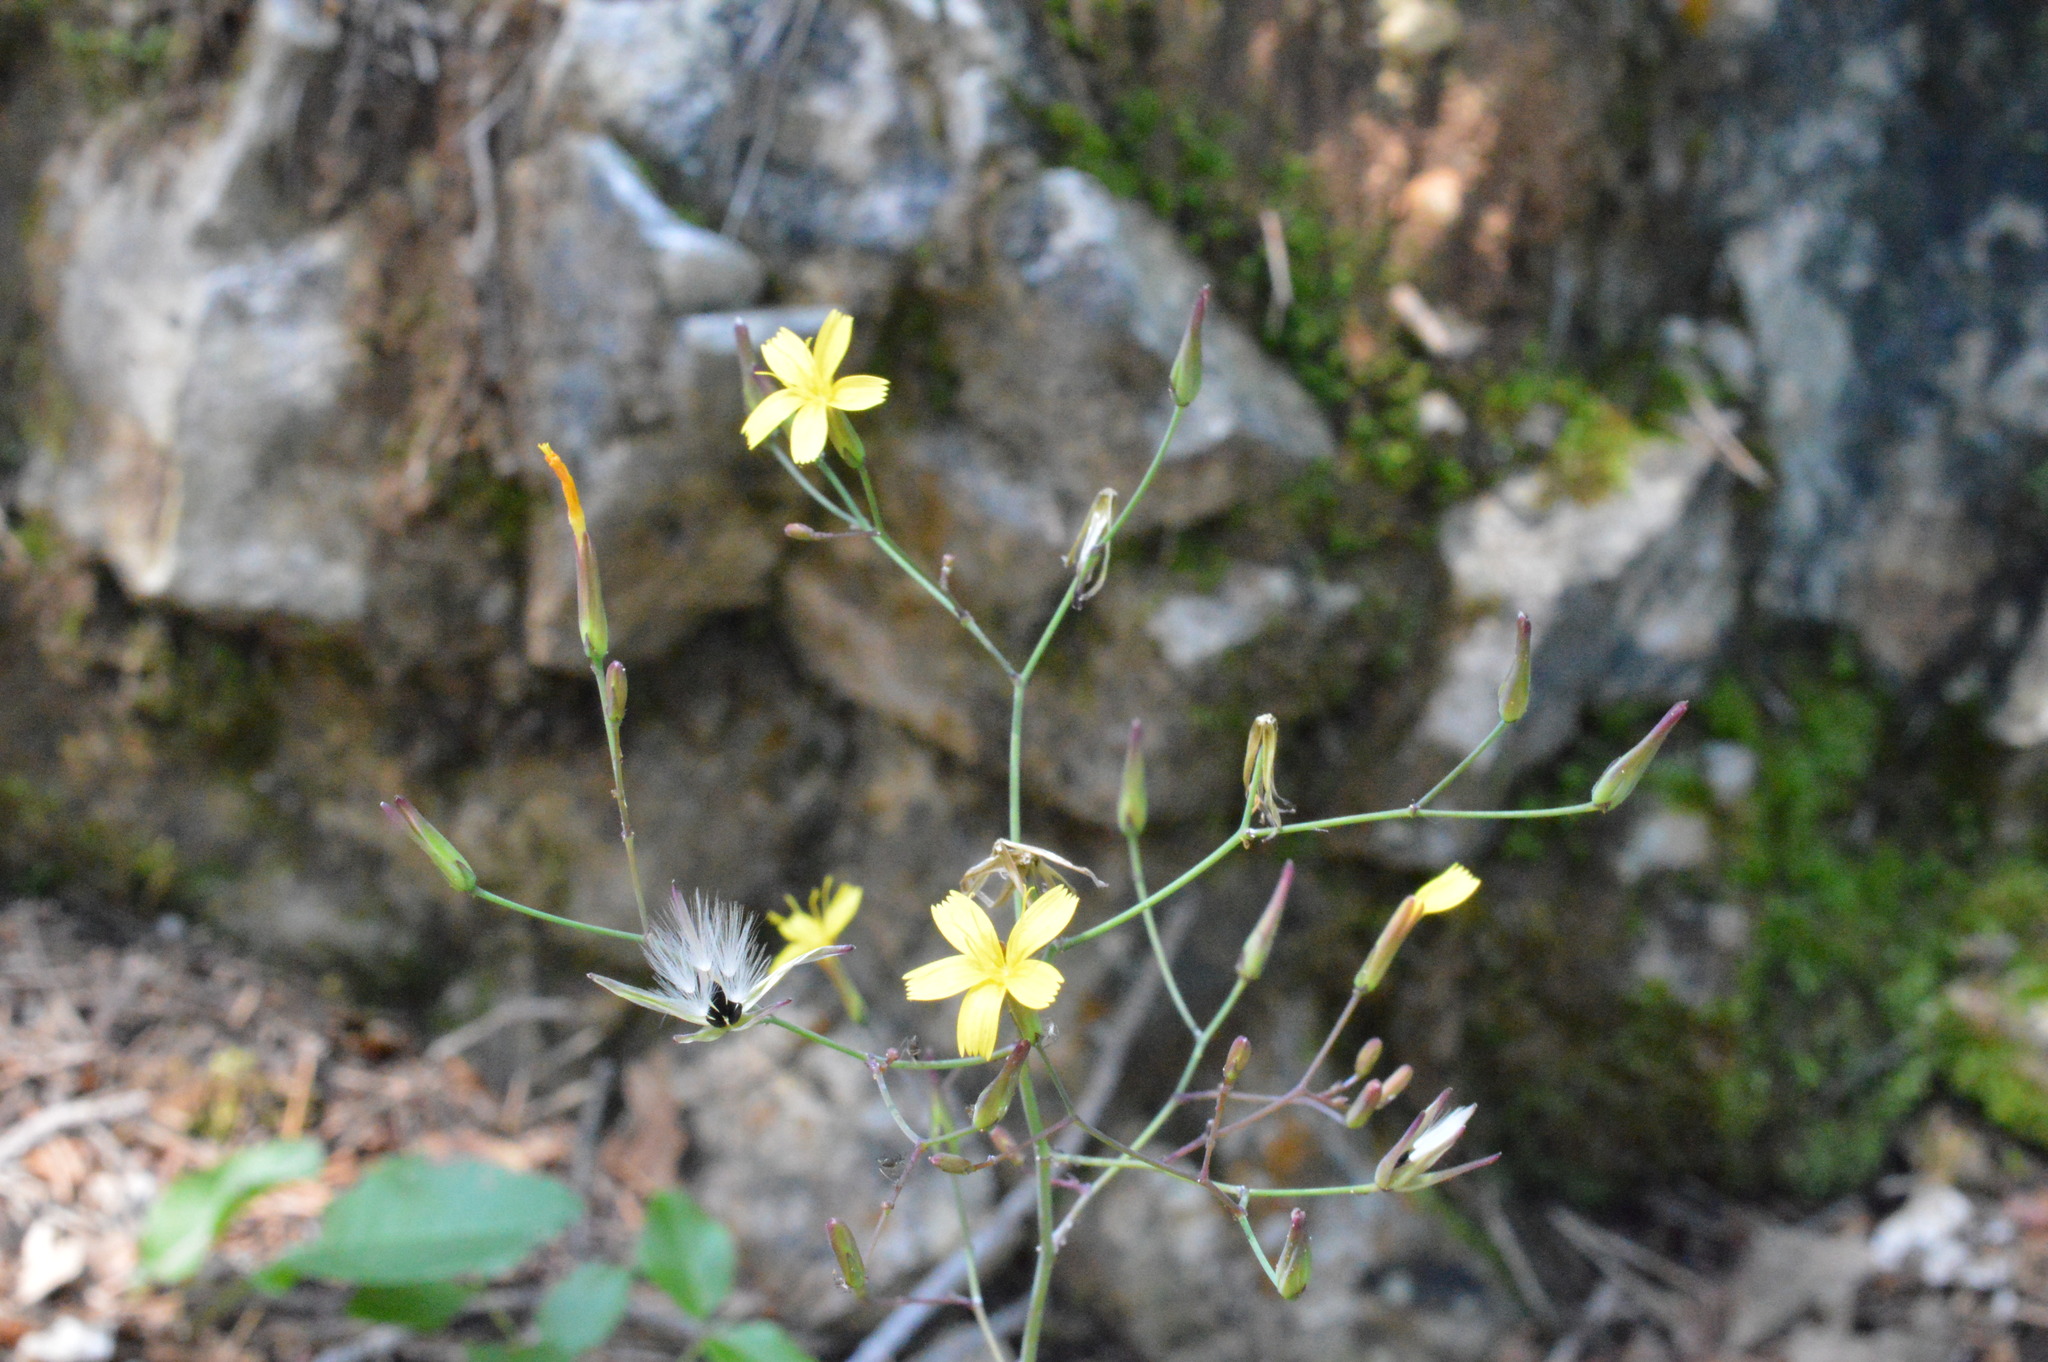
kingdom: Plantae
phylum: Tracheophyta
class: Magnoliopsida
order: Asterales
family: Asteraceae
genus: Mycelis
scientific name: Mycelis muralis
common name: Wall lettuce
